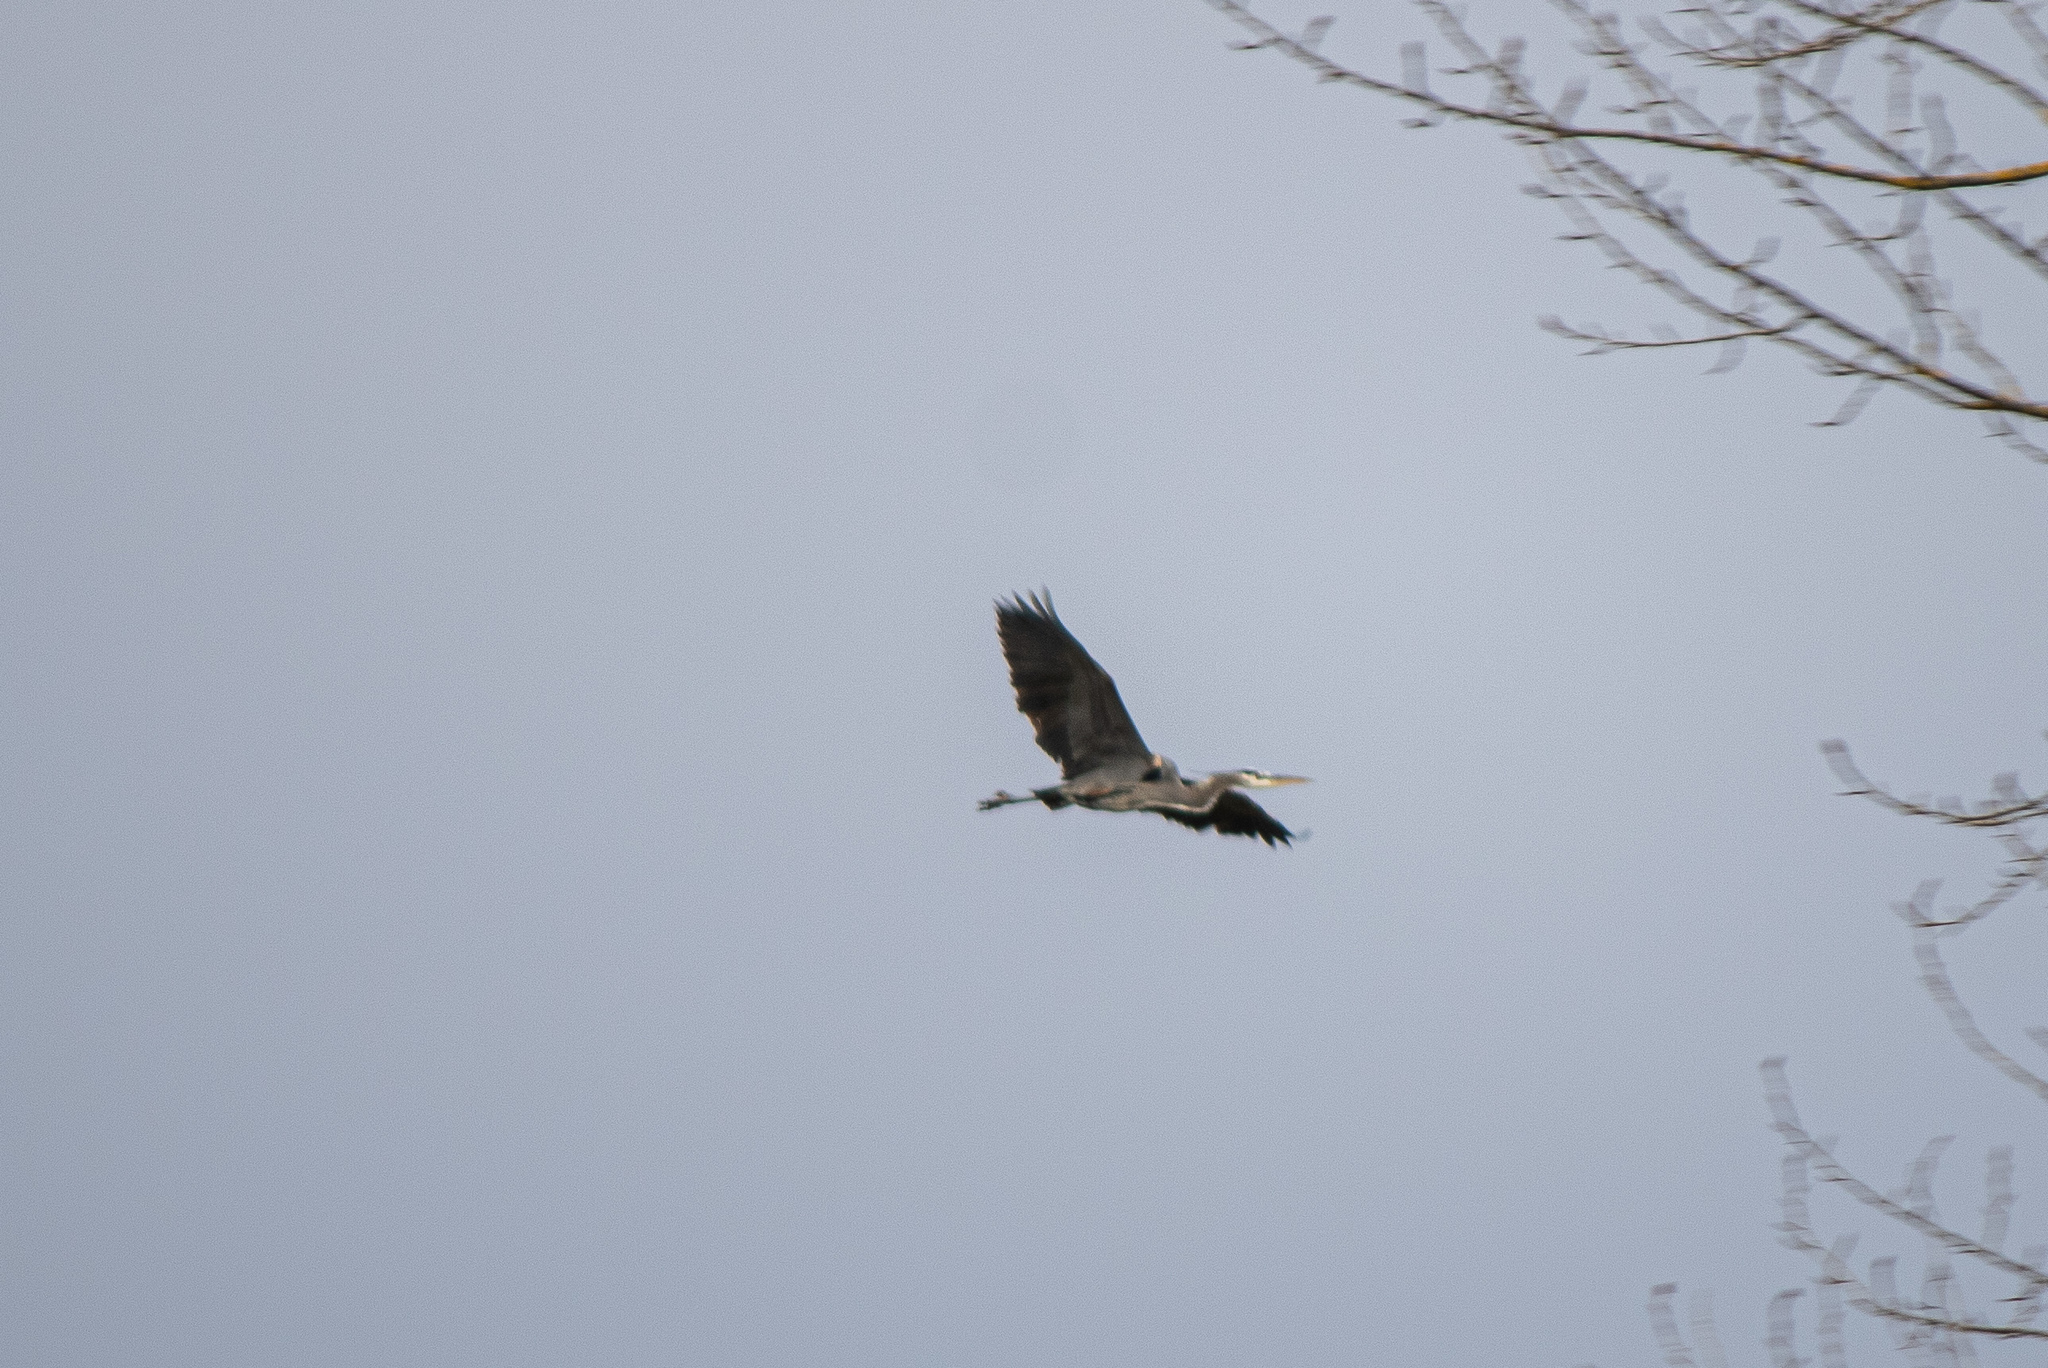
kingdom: Animalia
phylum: Chordata
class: Aves
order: Pelecaniformes
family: Ardeidae
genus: Ardea
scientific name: Ardea herodias
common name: Great blue heron
